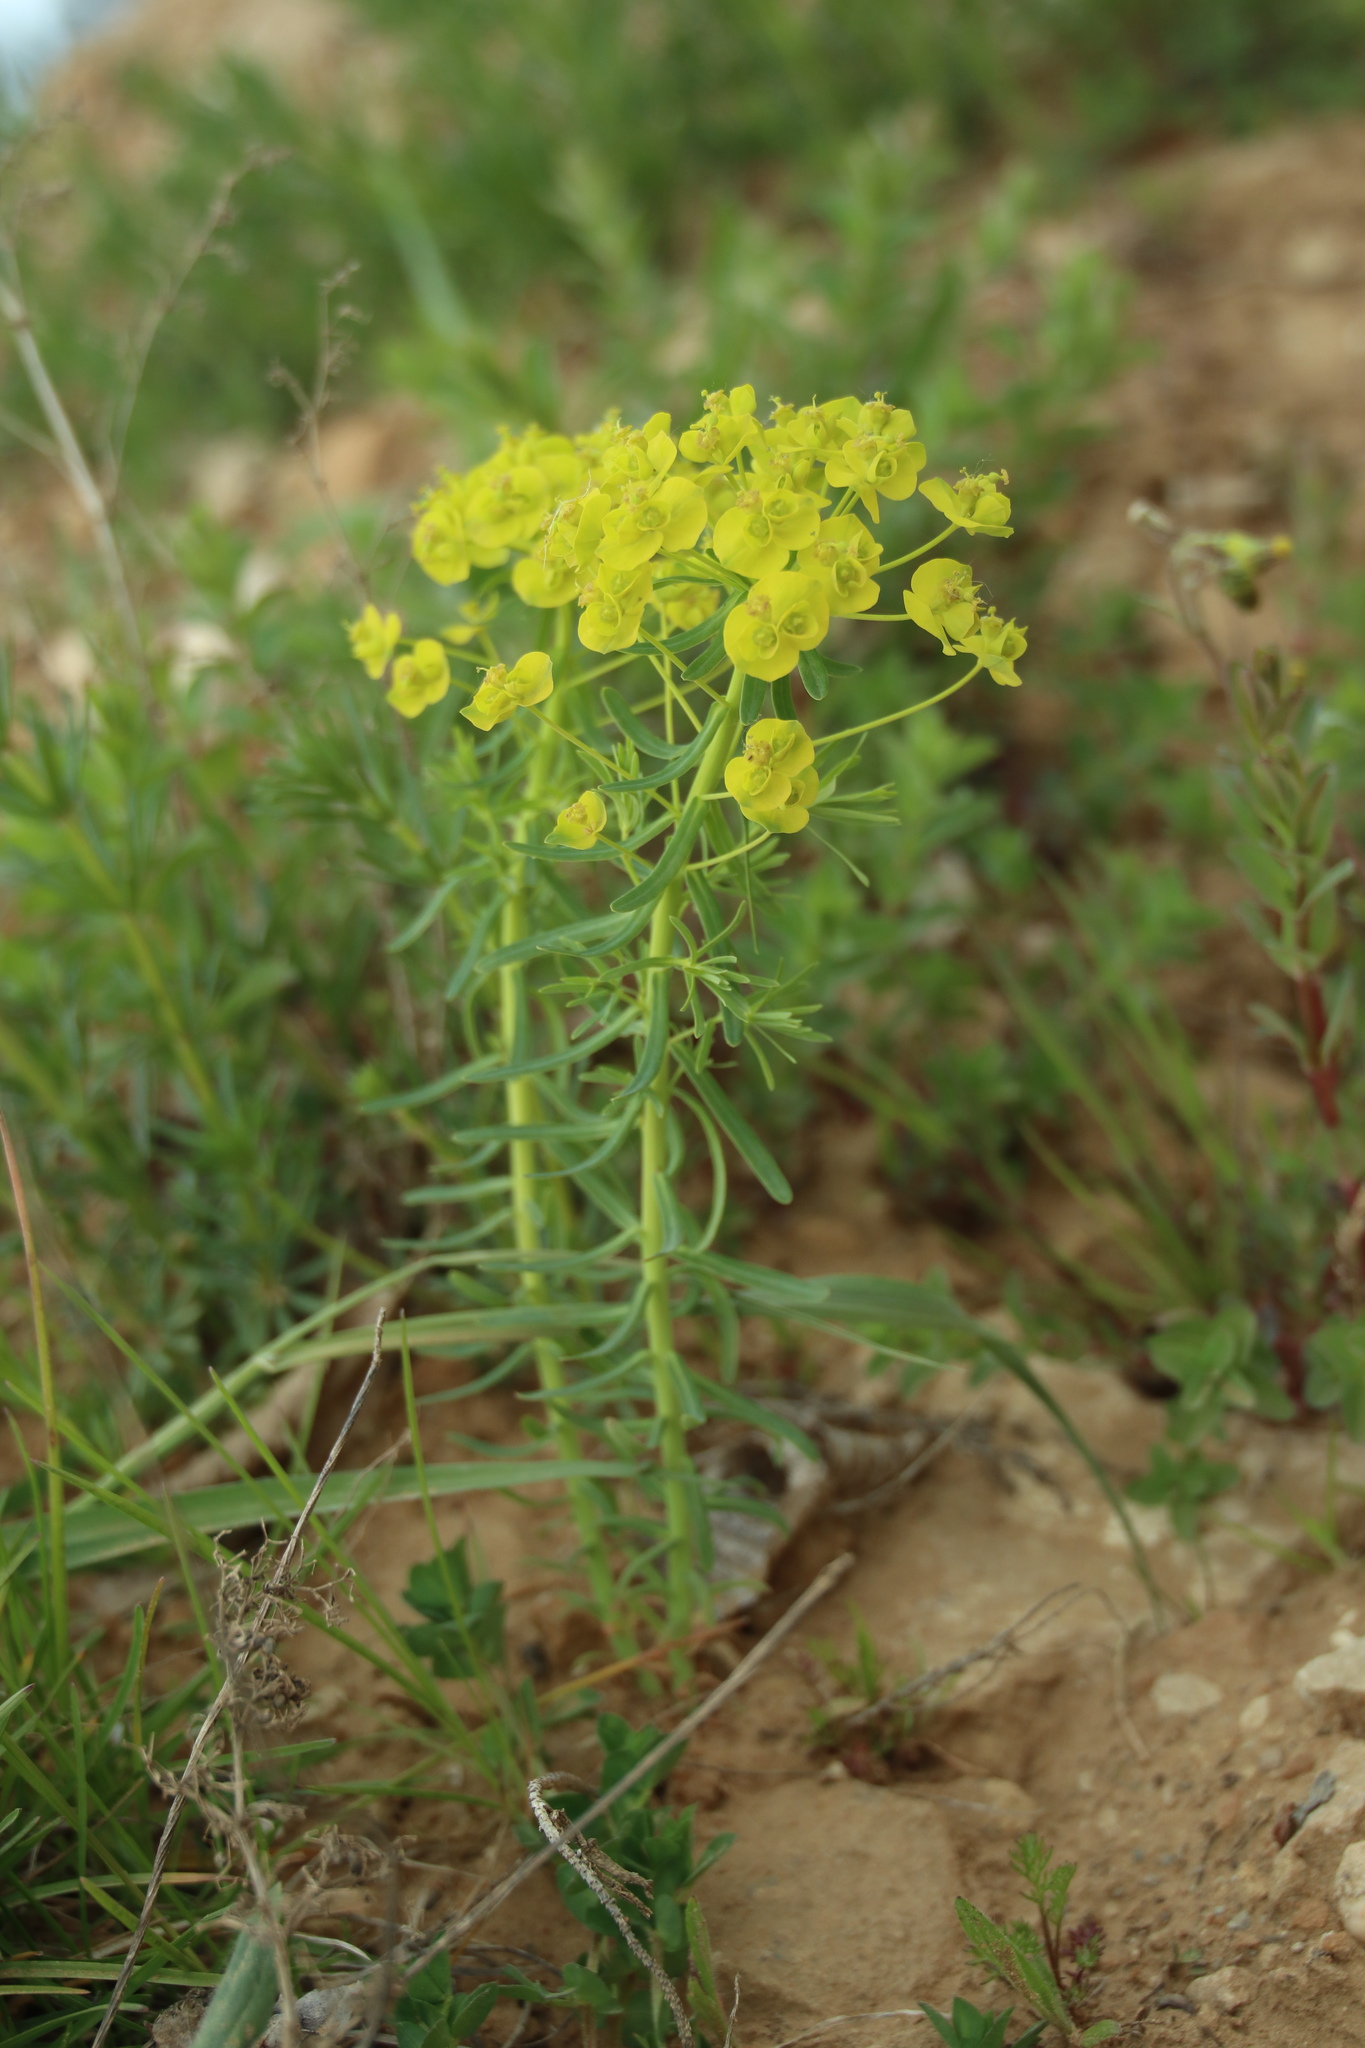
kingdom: Plantae
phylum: Tracheophyta
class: Magnoliopsida
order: Malpighiales
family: Euphorbiaceae
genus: Euphorbia
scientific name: Euphorbia cyparissias
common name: Cypress spurge
